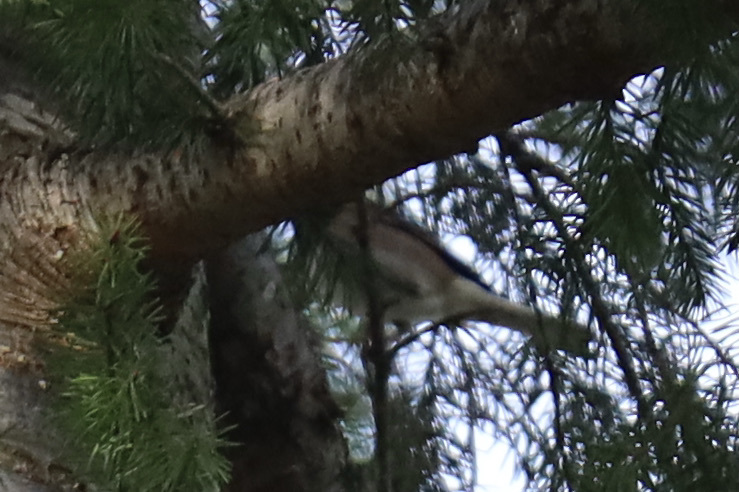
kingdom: Animalia
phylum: Chordata
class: Aves
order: Passeriformes
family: Passerellidae
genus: Junco
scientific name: Junco hyemalis
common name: Dark-eyed junco
